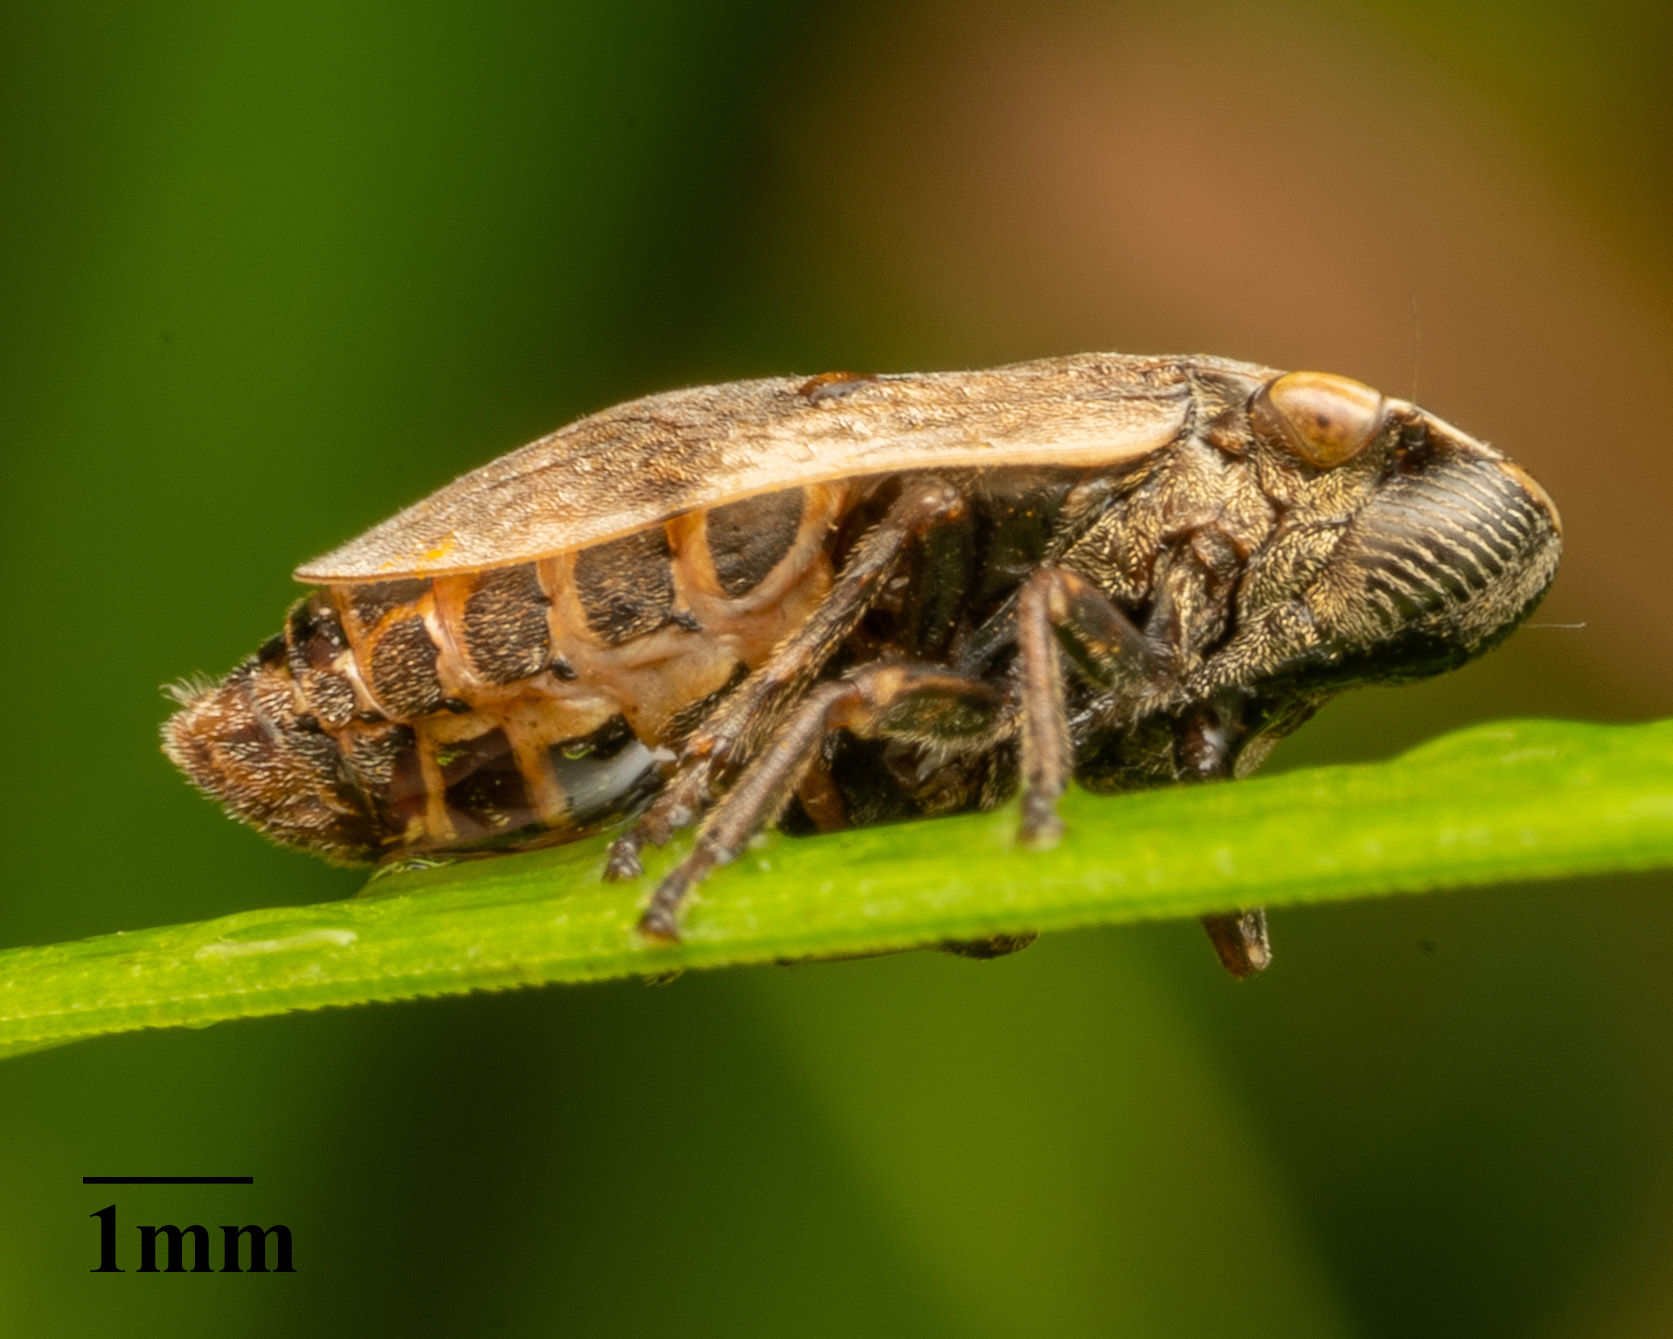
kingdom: Animalia
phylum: Arthropoda
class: Insecta
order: Hemiptera
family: Aphrophoridae
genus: Lepyronia
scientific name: Lepyronia coleoptrata
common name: Leafhopper
